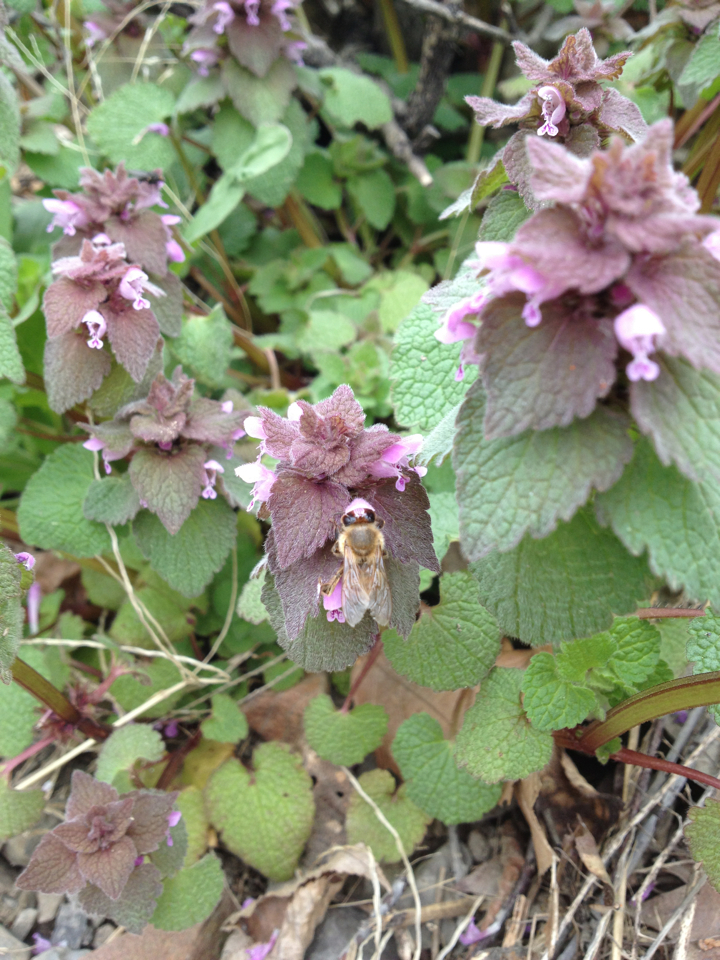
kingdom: Plantae
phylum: Tracheophyta
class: Magnoliopsida
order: Lamiales
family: Lamiaceae
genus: Lamium
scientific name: Lamium purpureum
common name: Red dead-nettle
